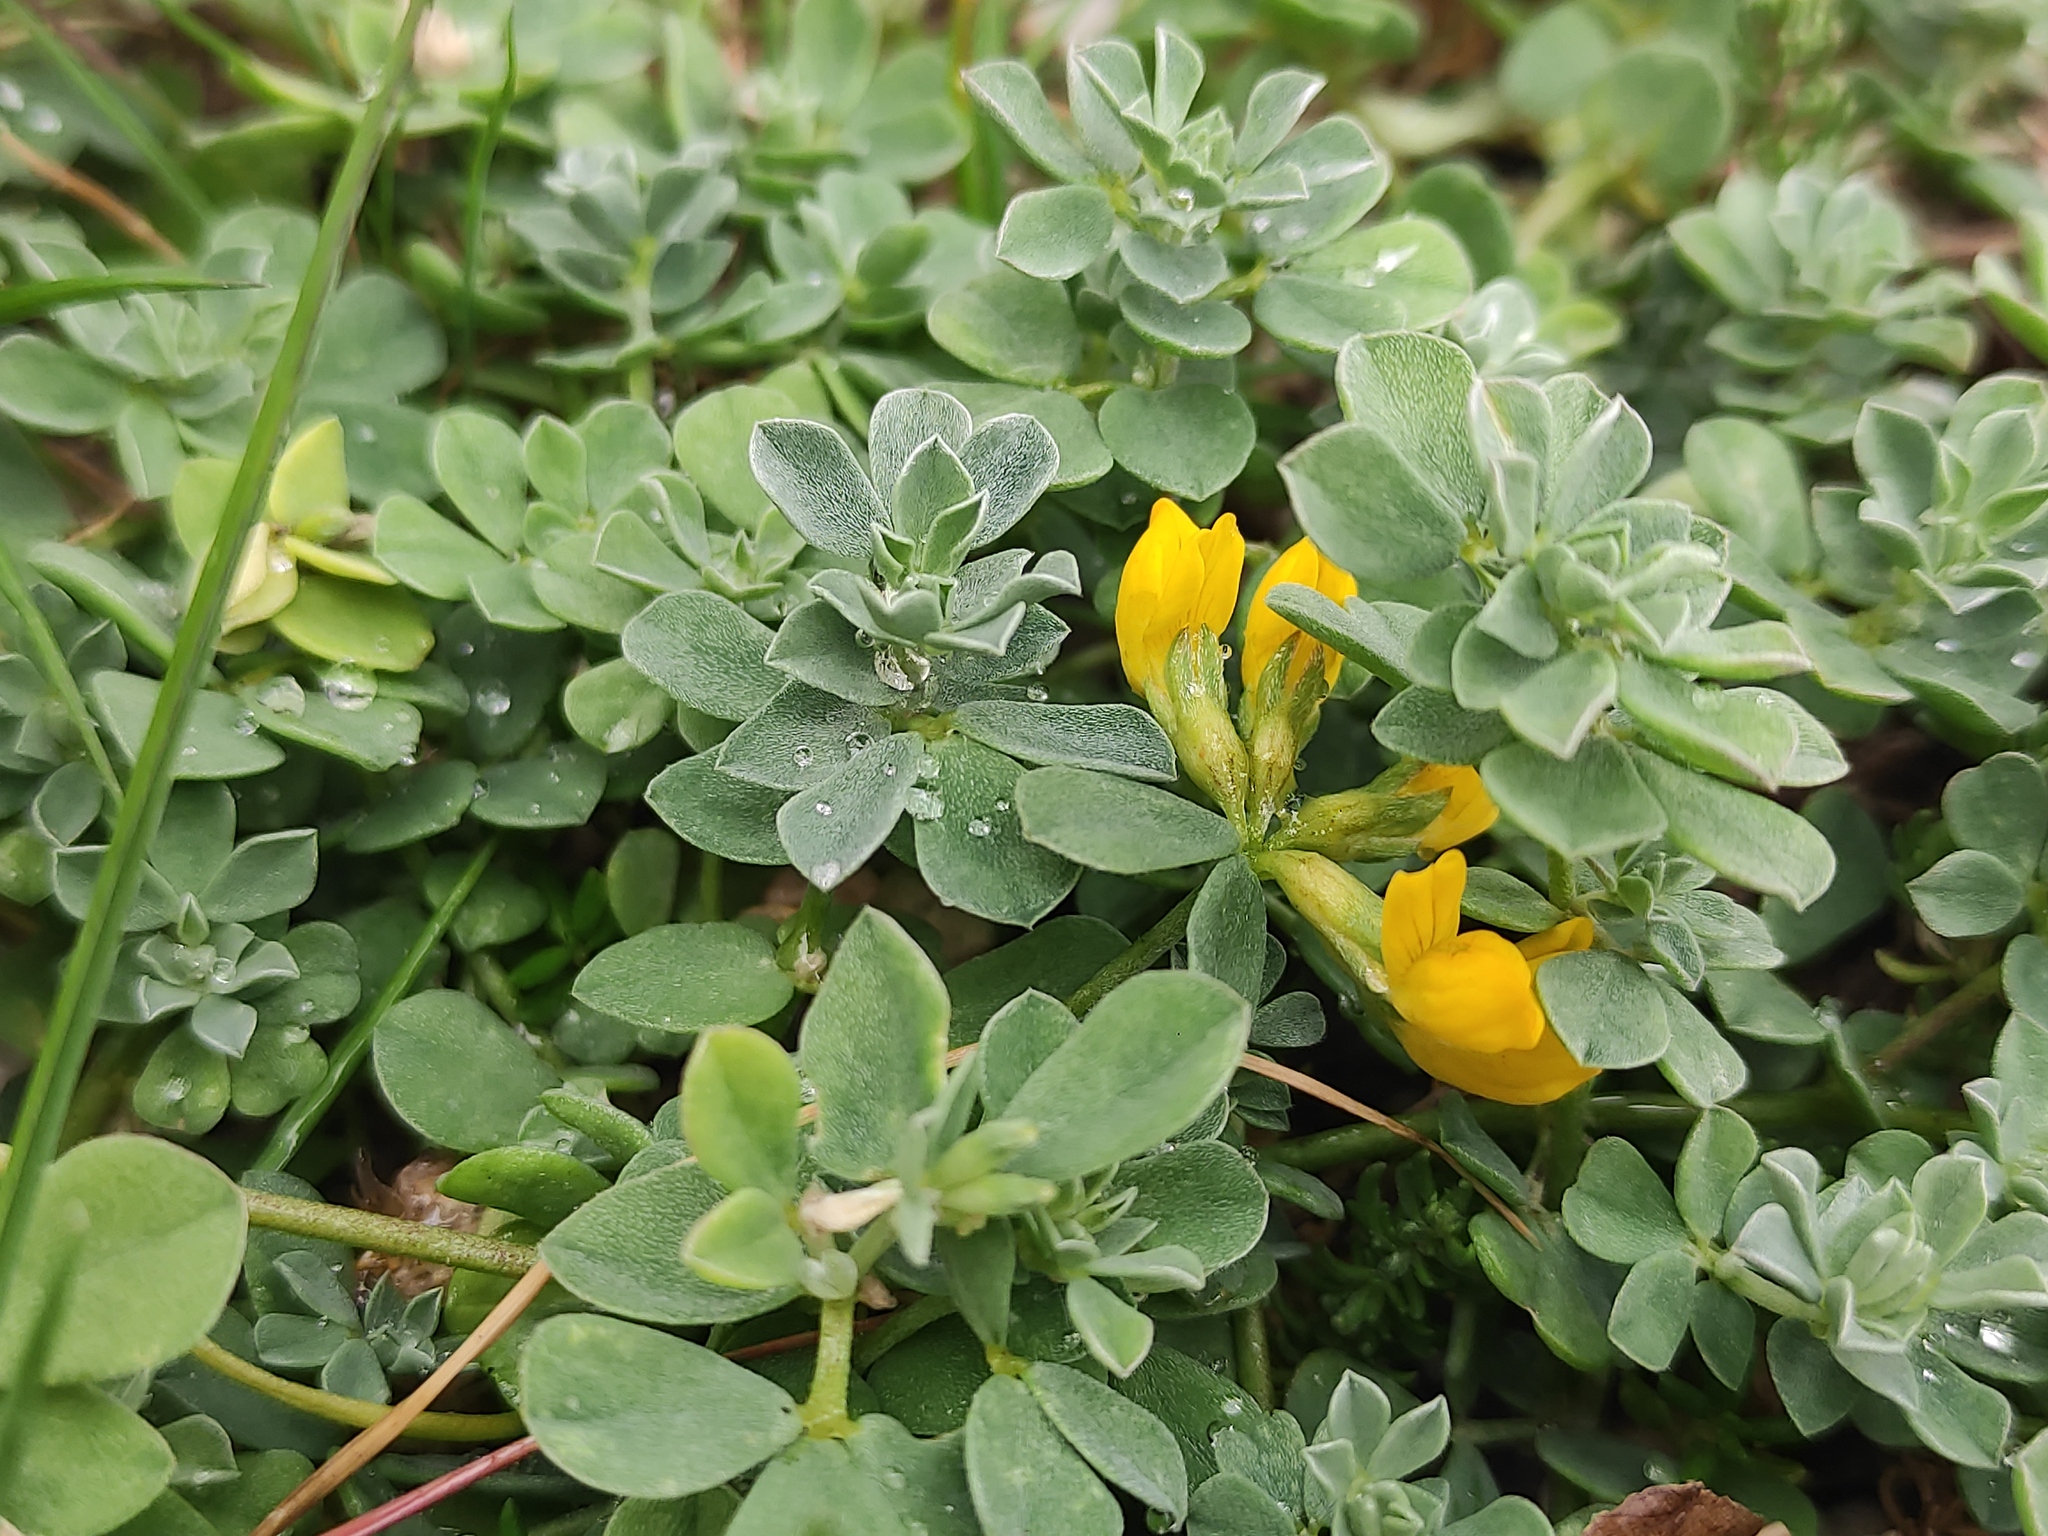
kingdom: Plantae
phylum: Tracheophyta
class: Magnoliopsida
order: Fabales
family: Fabaceae
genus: Lotus
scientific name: Lotus cytisoides
